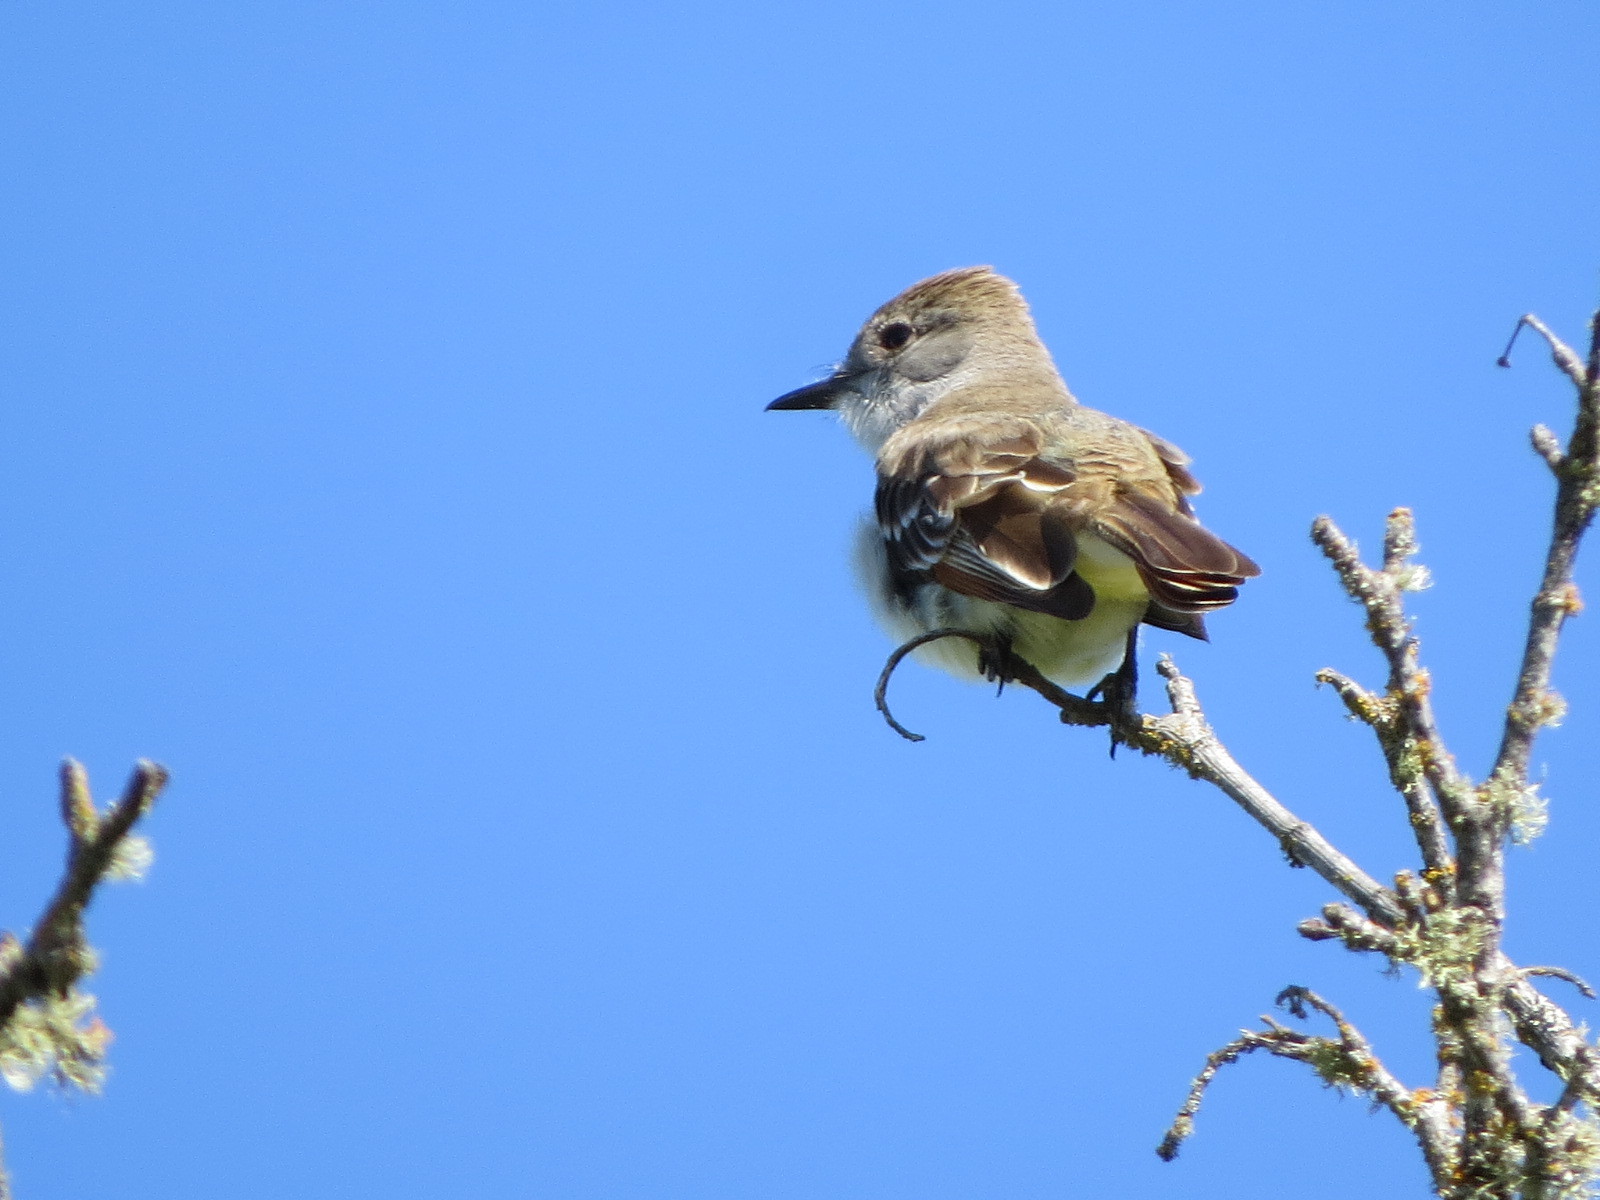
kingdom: Animalia
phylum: Chordata
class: Aves
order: Passeriformes
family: Tyrannidae
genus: Myiarchus
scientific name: Myiarchus cinerascens
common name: Ash-throated flycatcher
